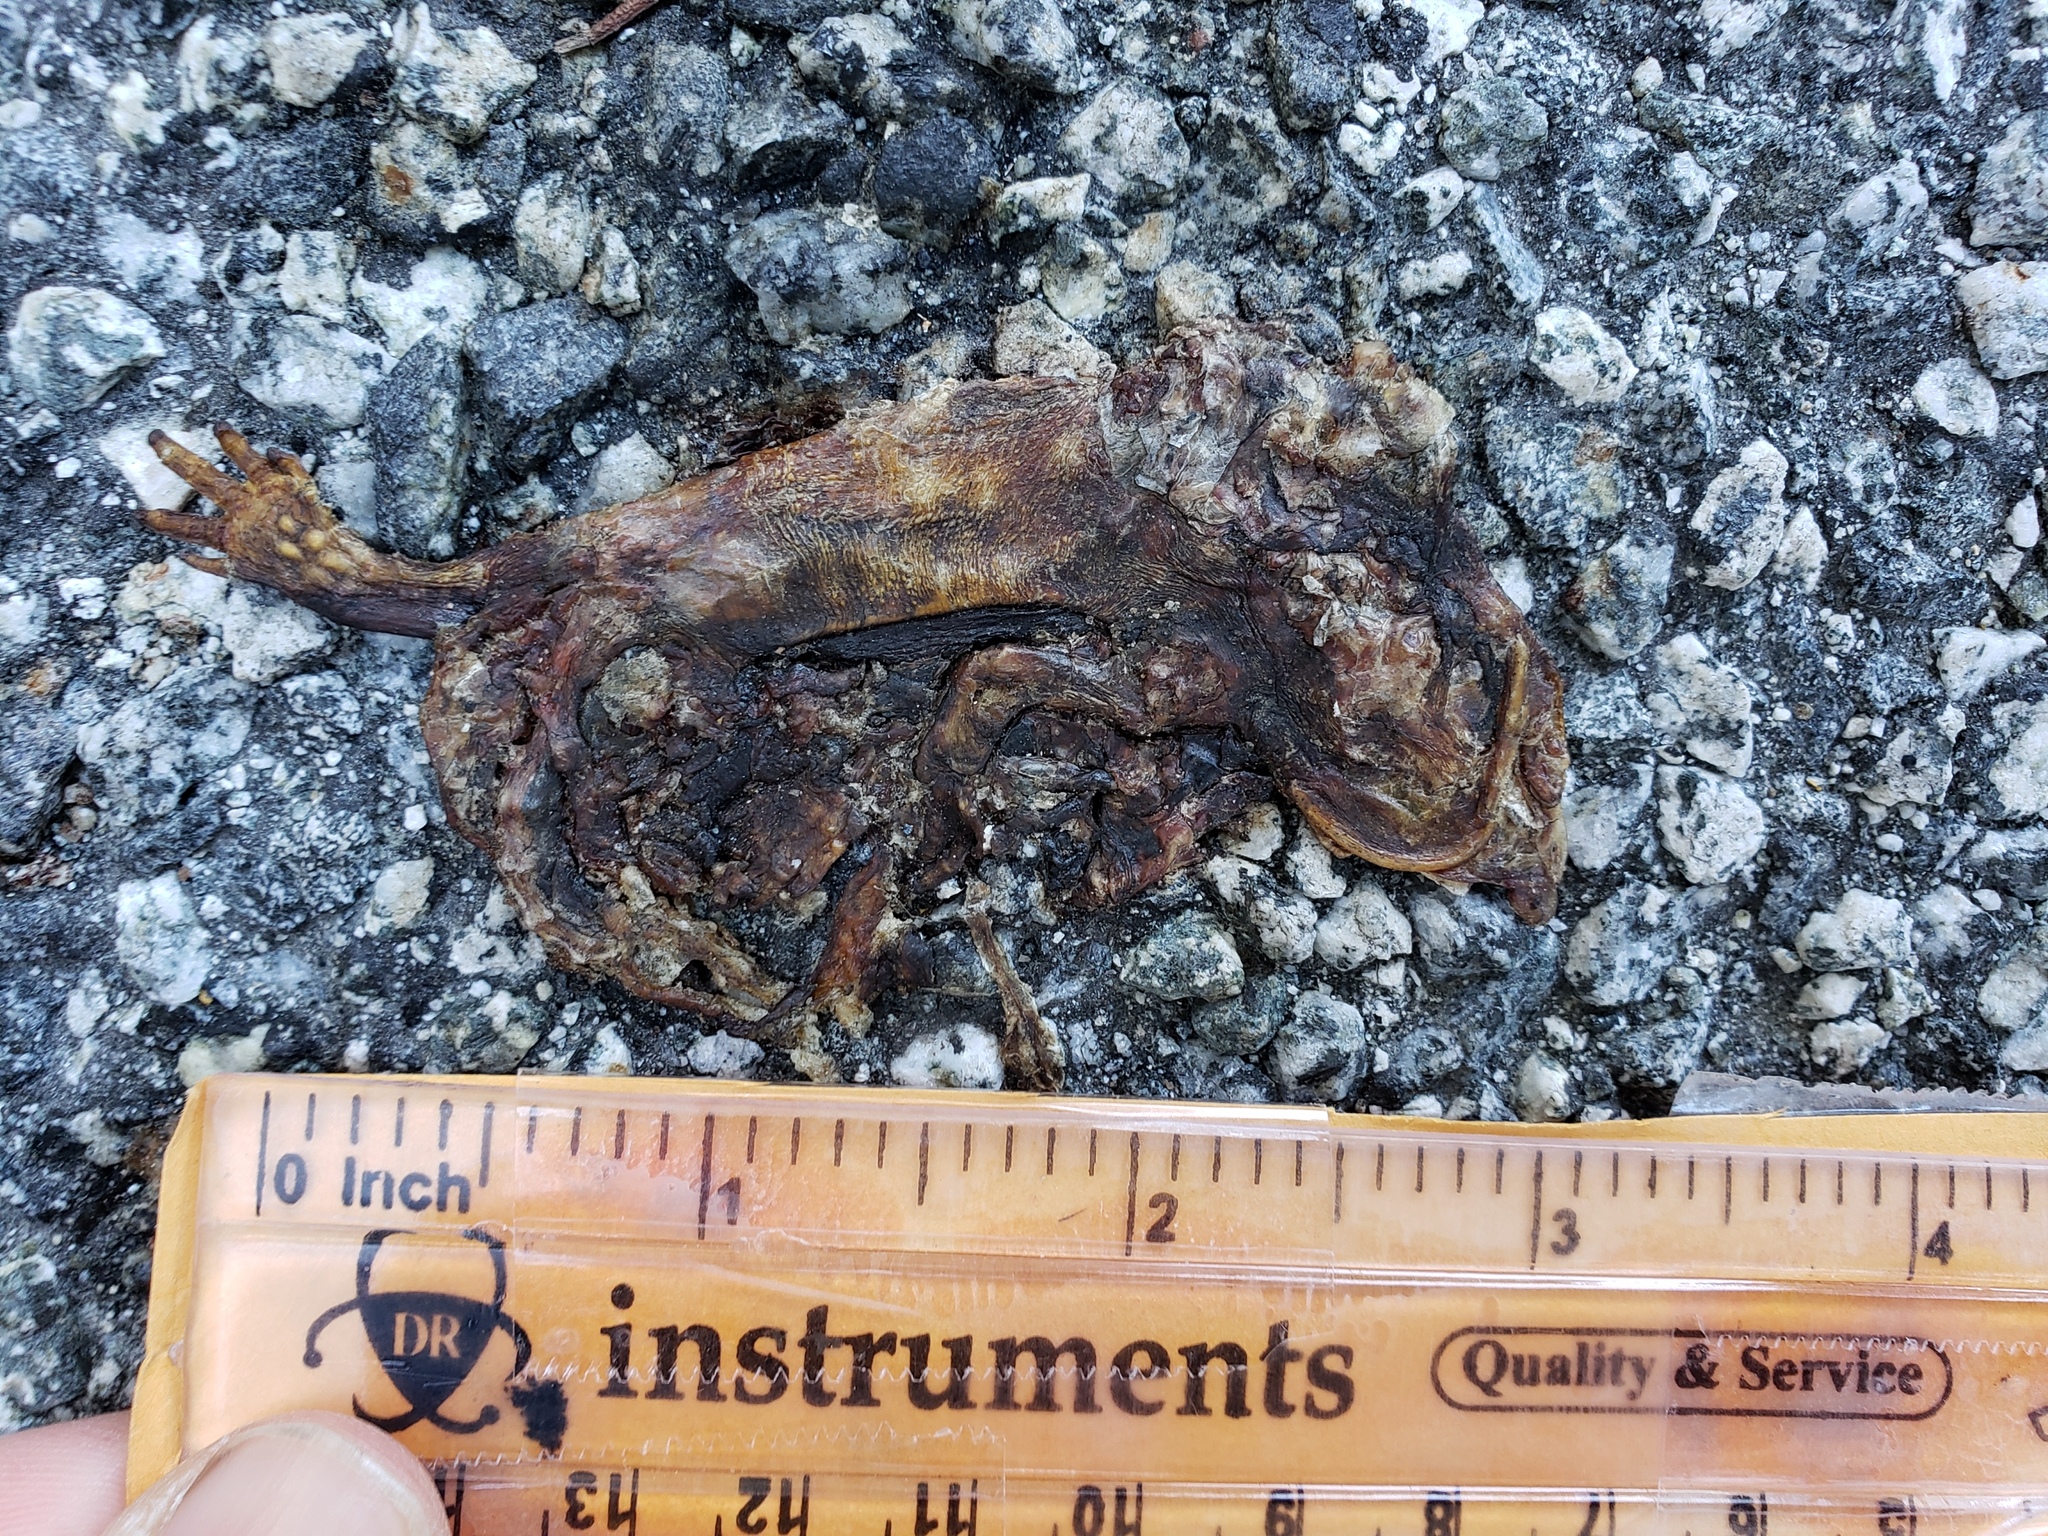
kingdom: Animalia
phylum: Chordata
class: Amphibia
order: Caudata
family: Salamandridae
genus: Taricha
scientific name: Taricha
